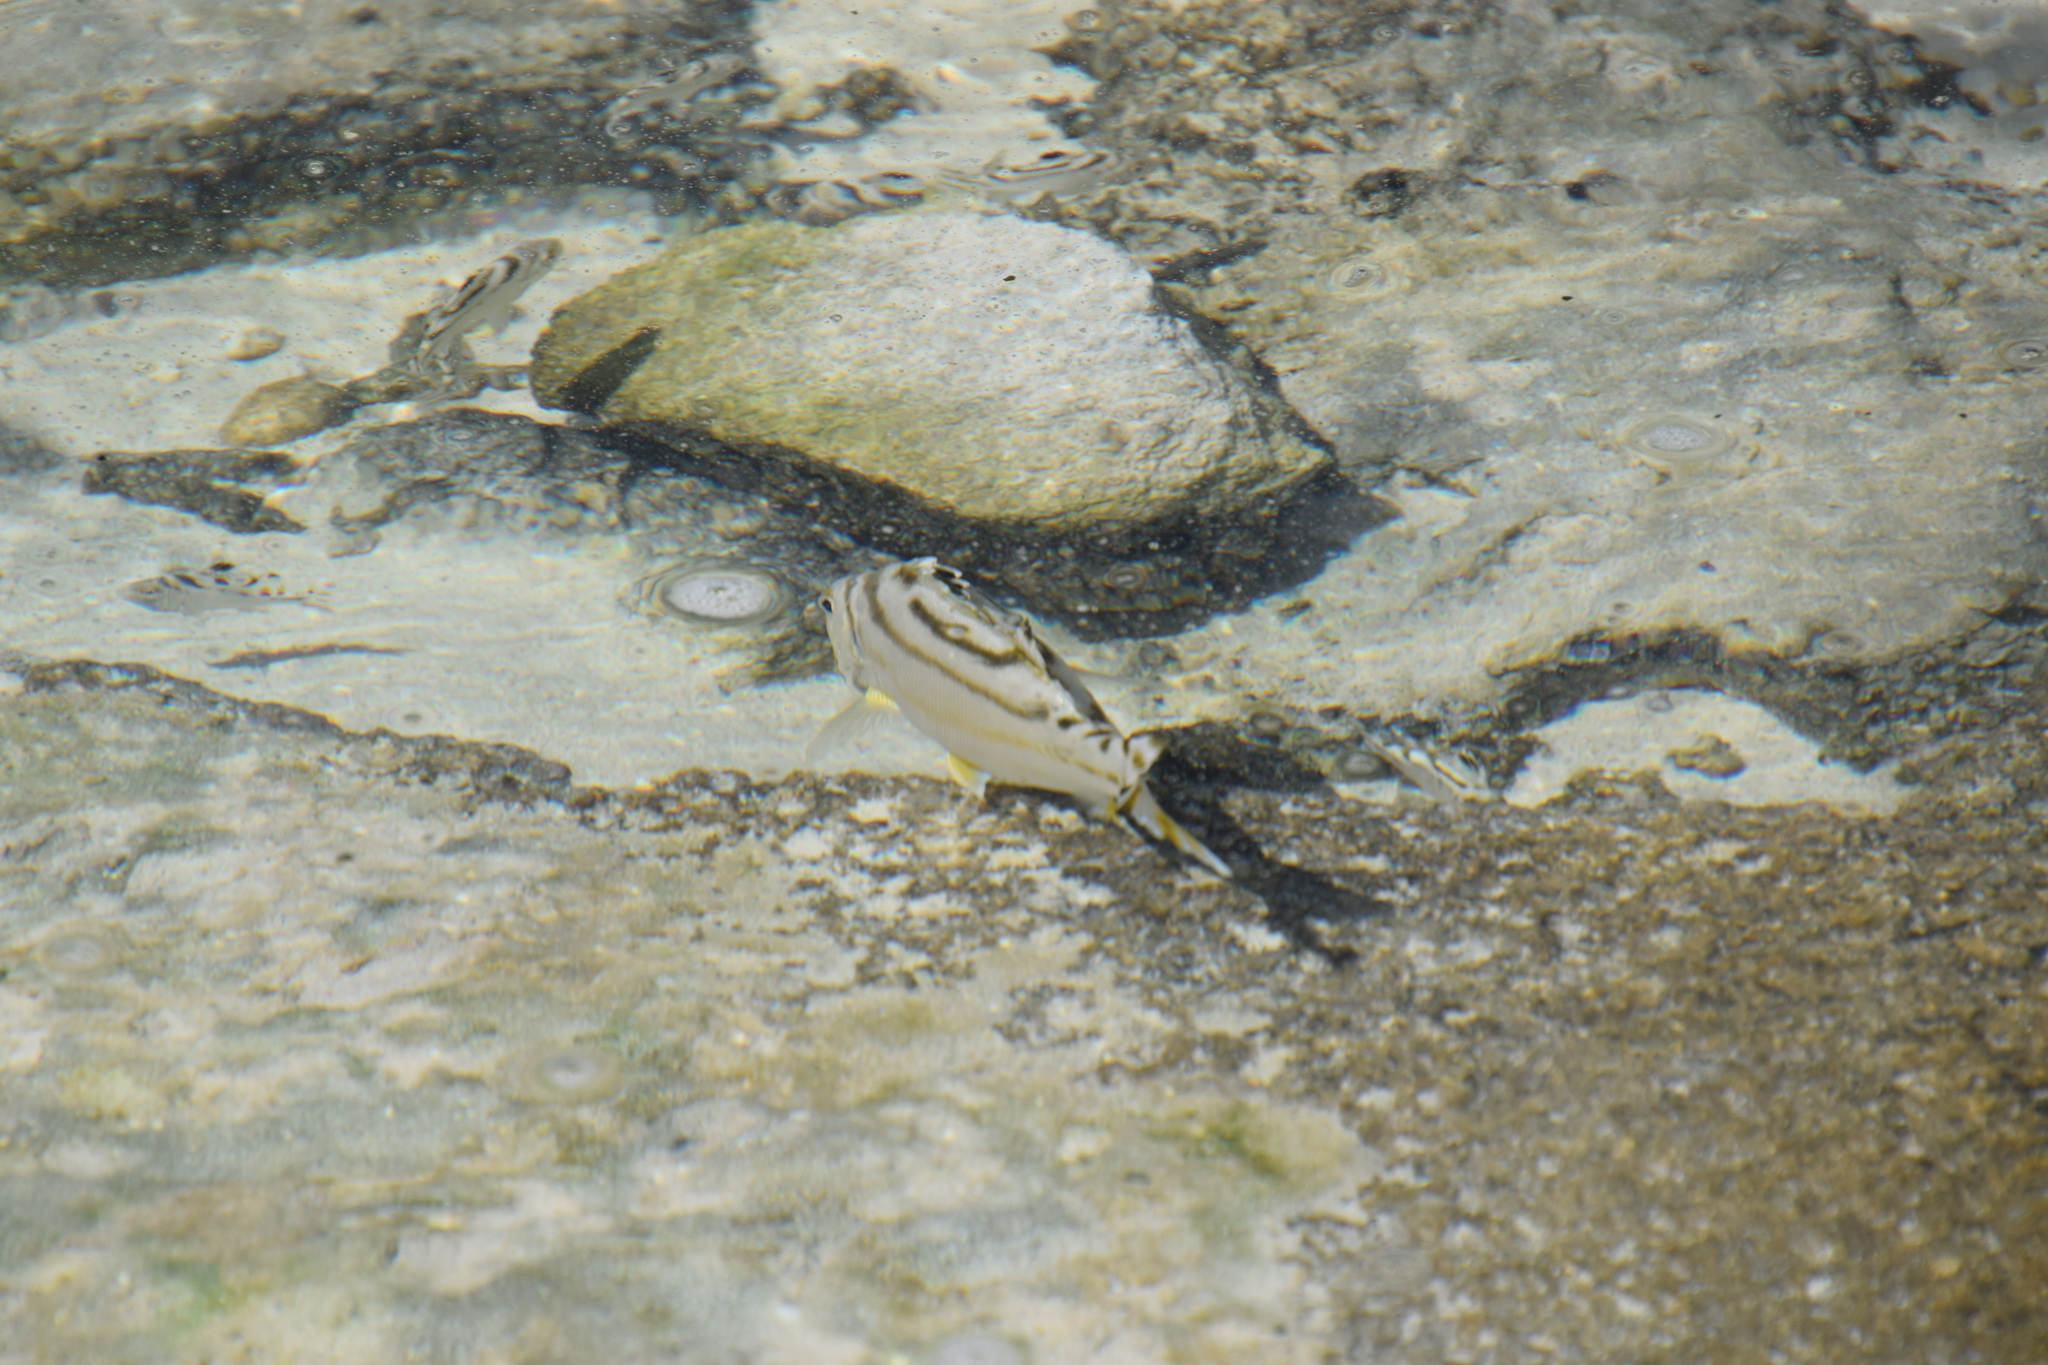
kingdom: Animalia
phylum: Chordata
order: Perciformes
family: Terapontidae
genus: Terapon
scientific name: Terapon jarbua
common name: Jarbua terapon
